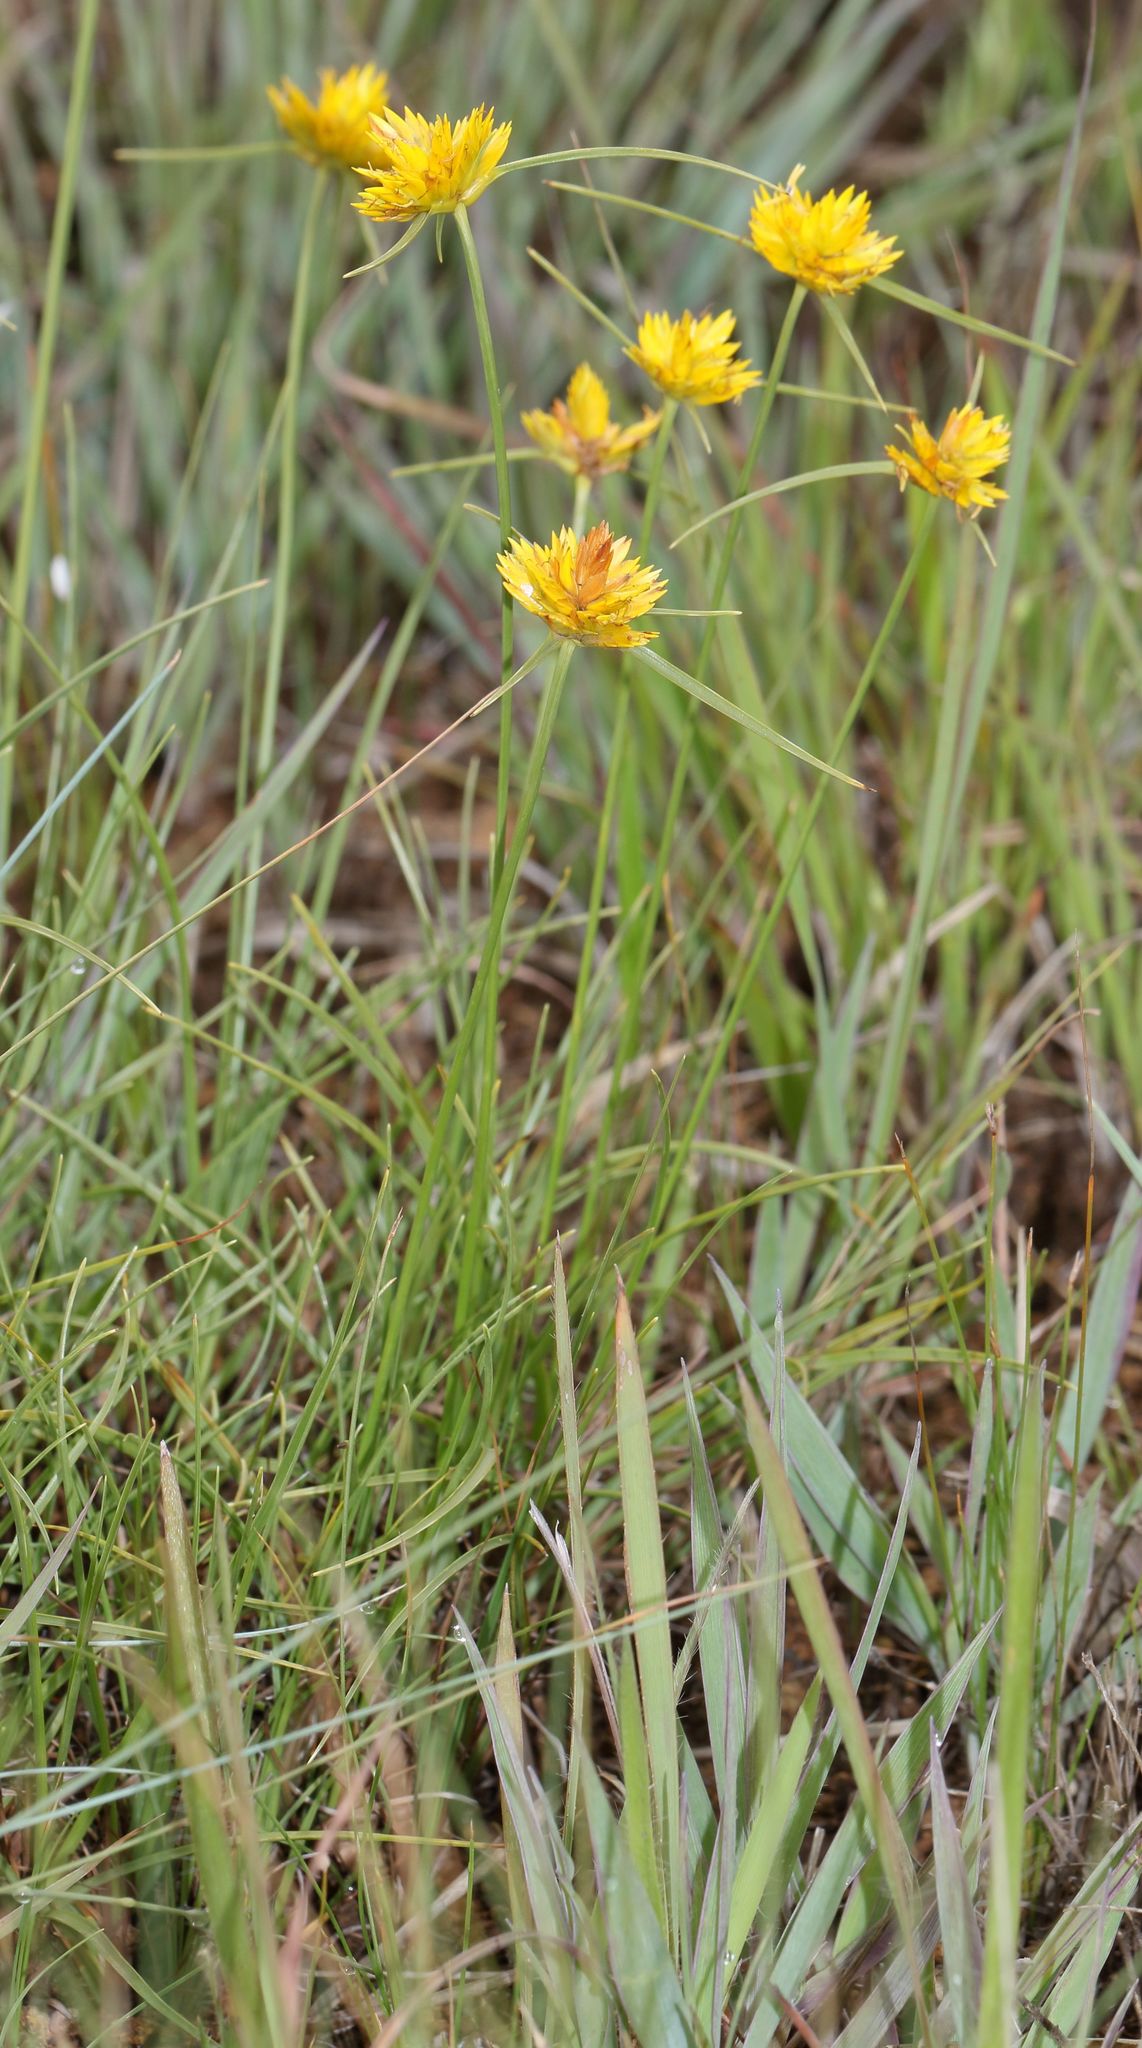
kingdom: Plantae
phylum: Tracheophyta
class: Liliopsida
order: Poales
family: Cyperaceae
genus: Cyperus
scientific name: Cyperus sphaerocephalus
